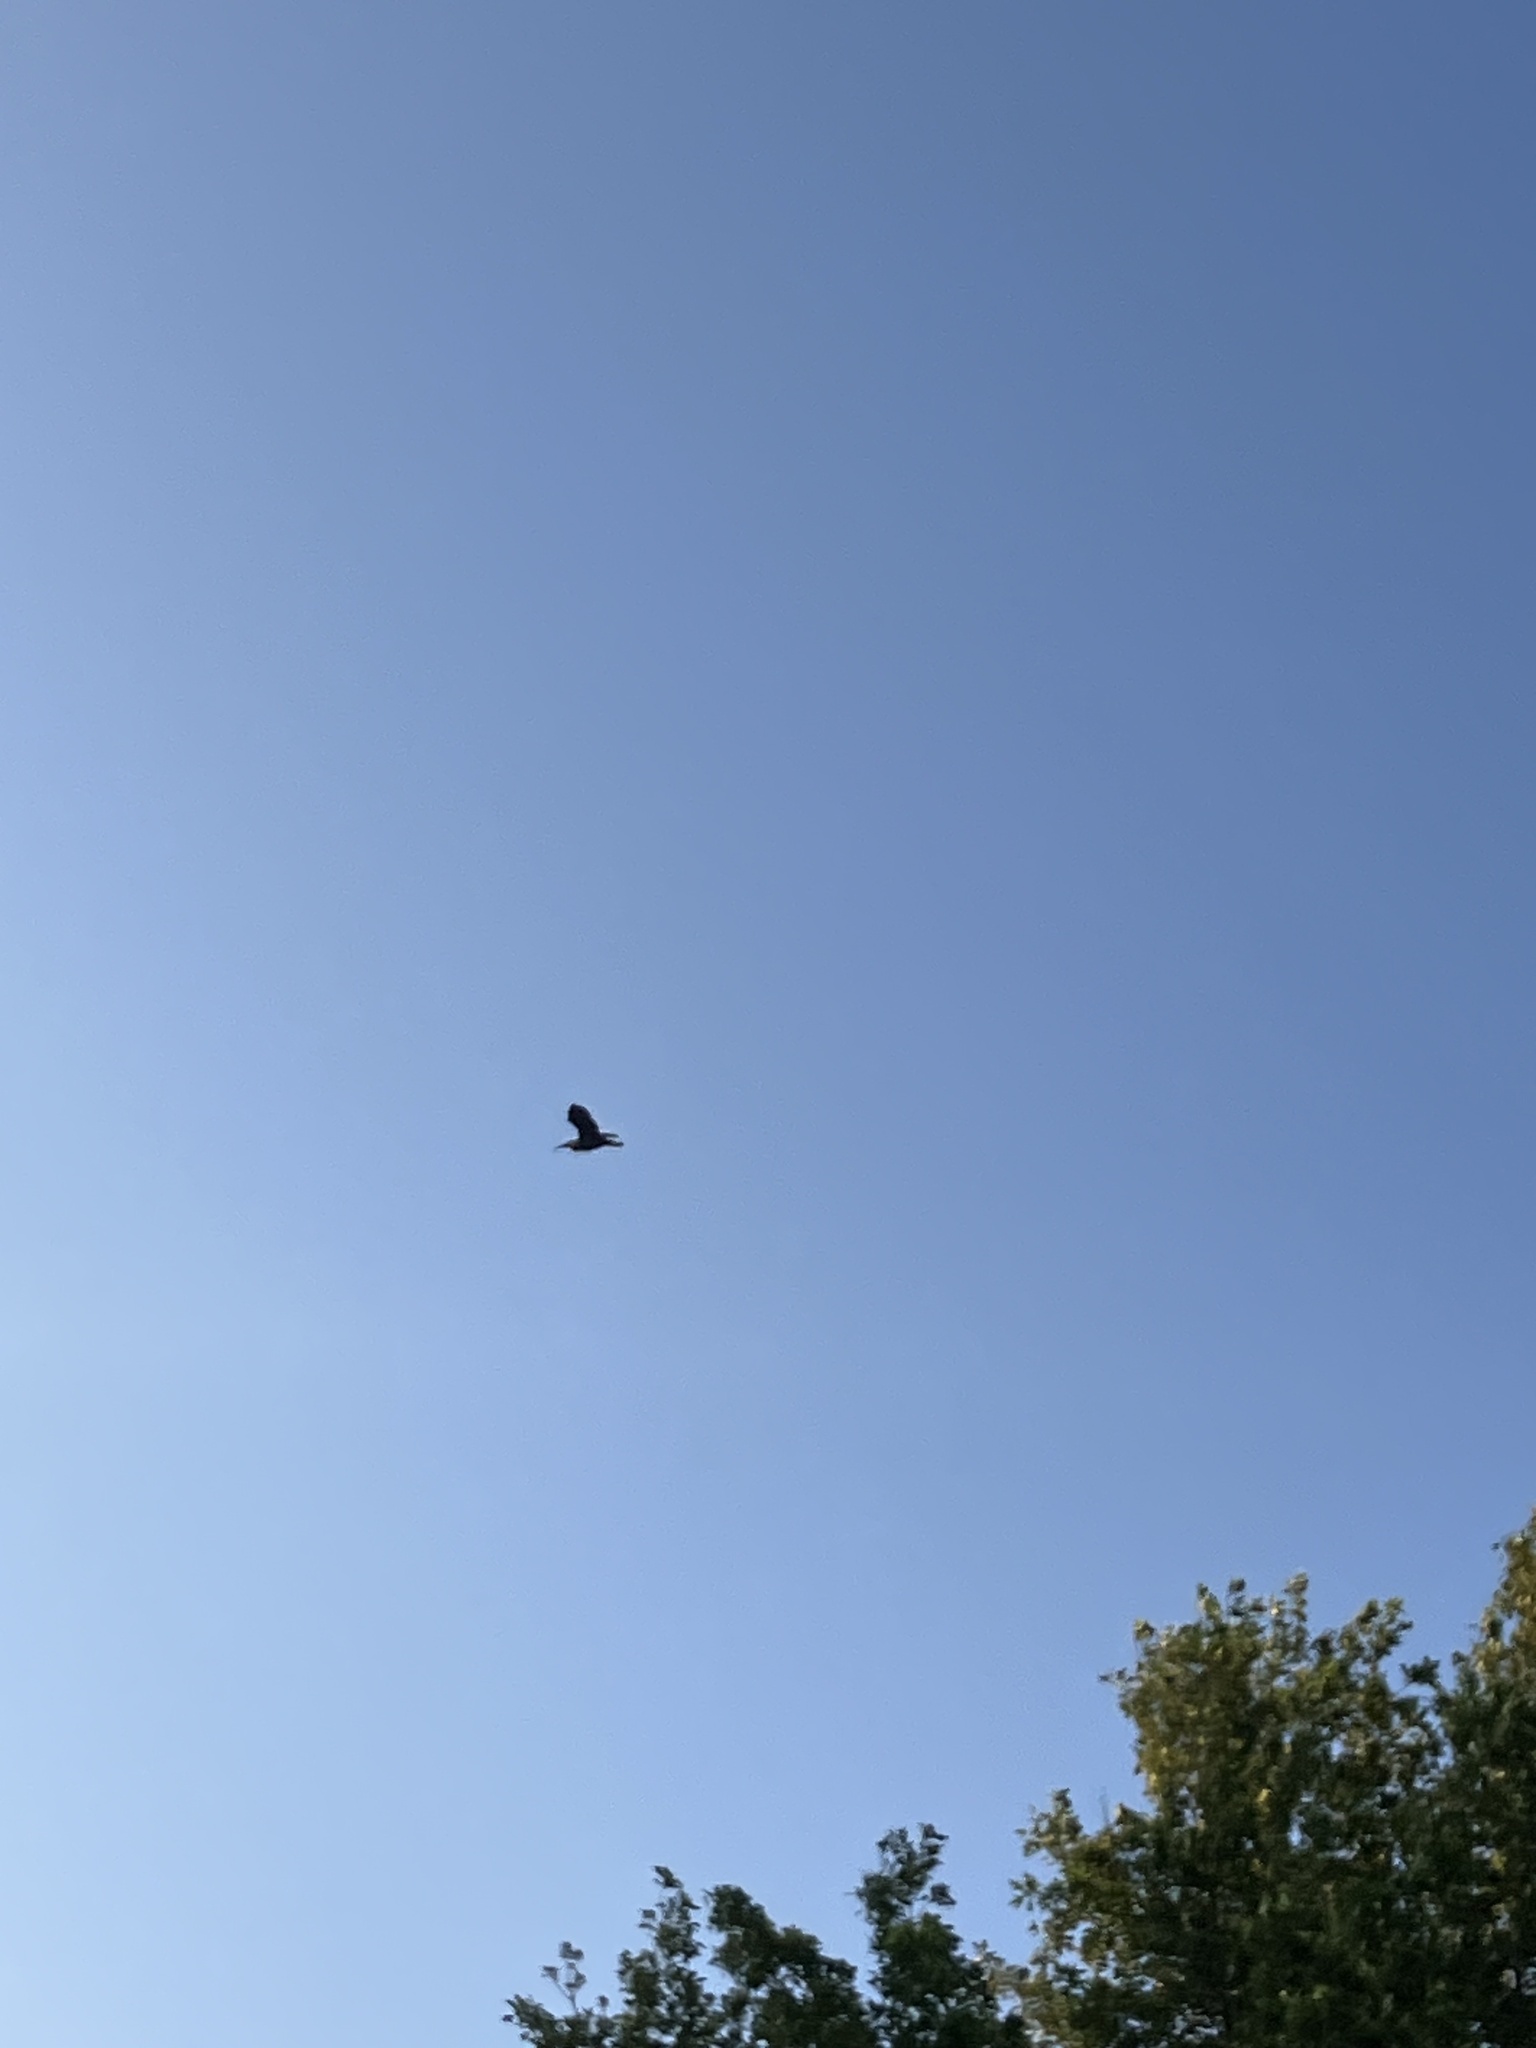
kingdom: Animalia
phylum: Chordata
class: Aves
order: Pelecaniformes
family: Ardeidae
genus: Butorides
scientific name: Butorides virescens
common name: Green heron
